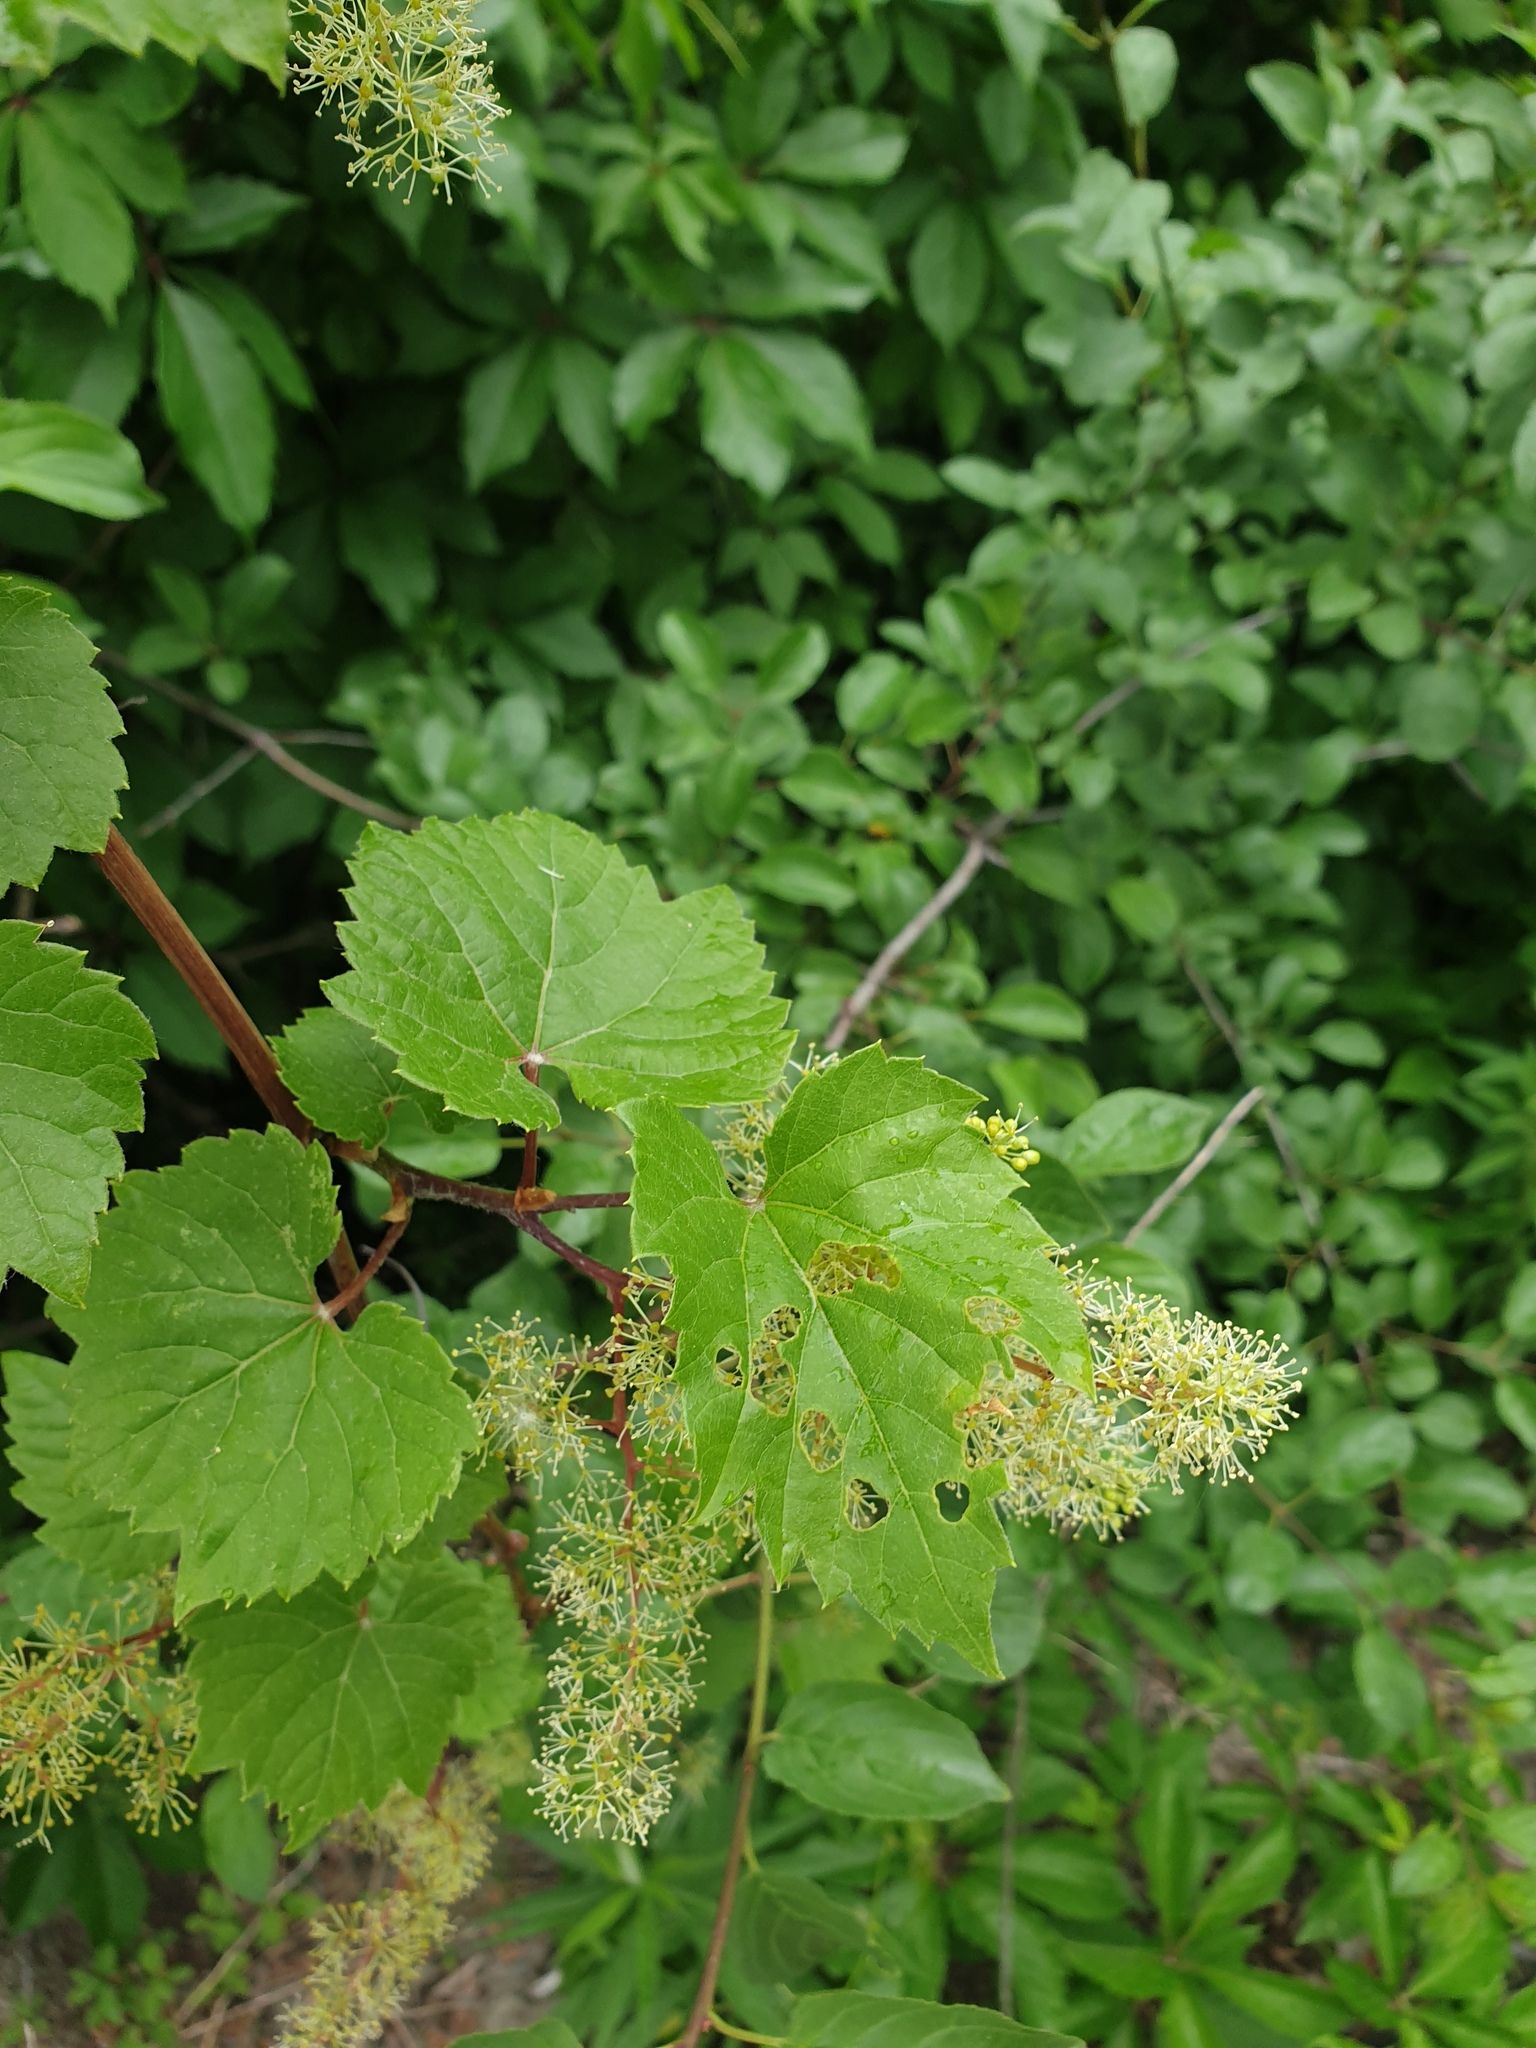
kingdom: Plantae
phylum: Tracheophyta
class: Magnoliopsida
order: Vitales
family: Vitaceae
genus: Vitis
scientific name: Vitis riparia
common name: Frost grape
